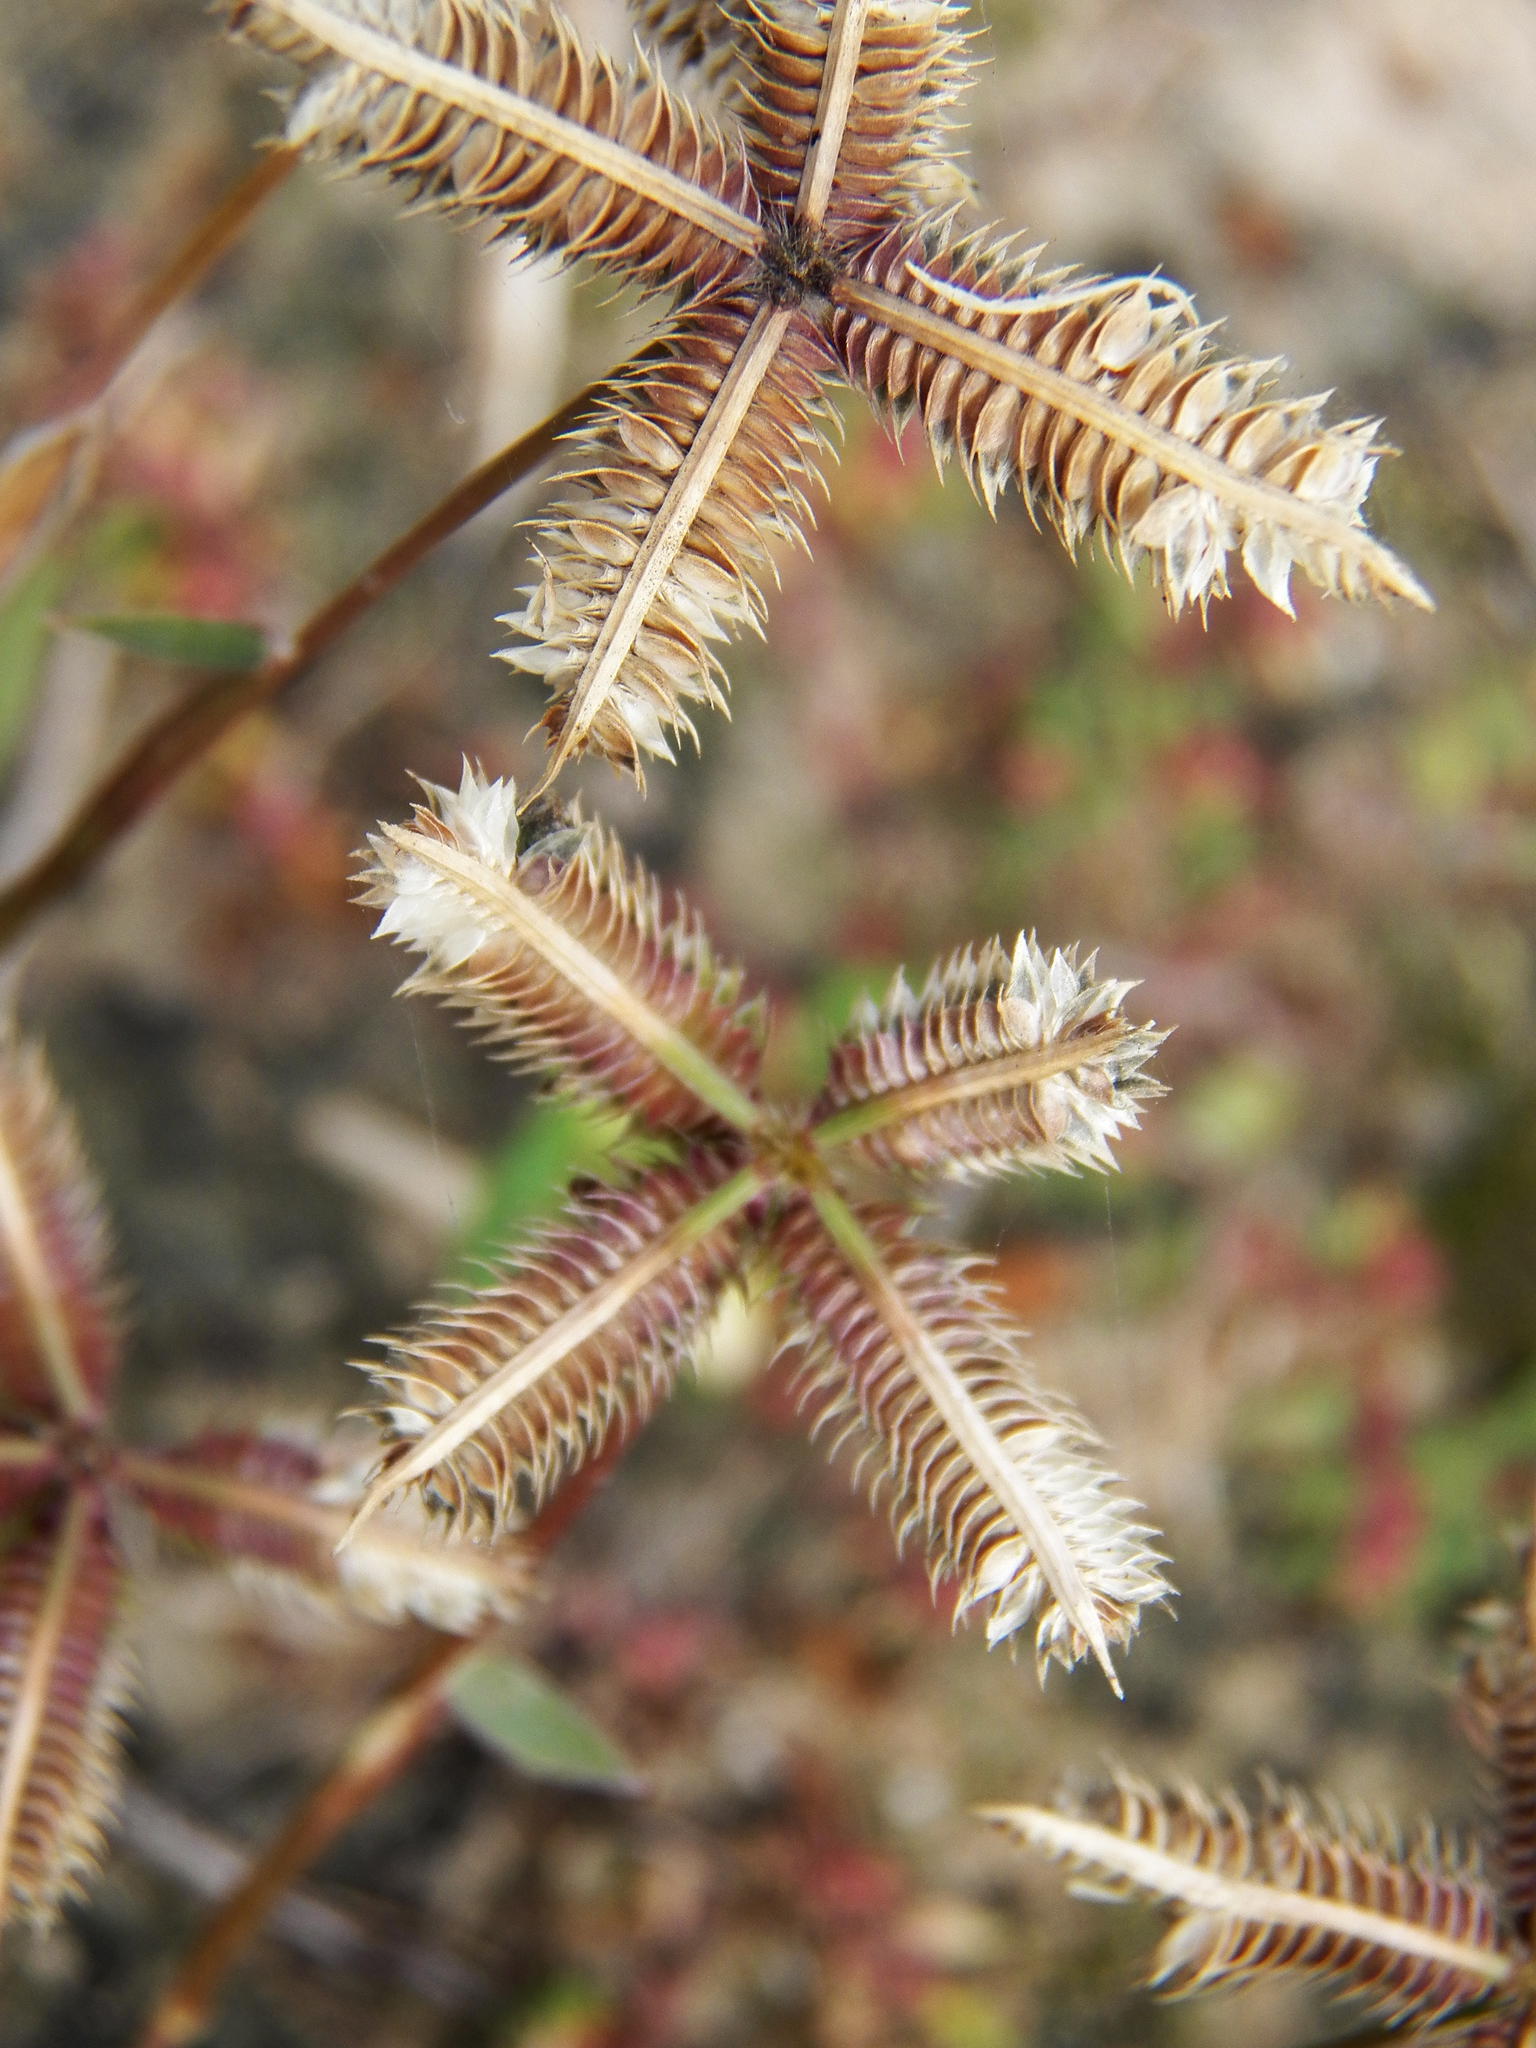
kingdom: Plantae
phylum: Tracheophyta
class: Liliopsida
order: Poales
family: Poaceae
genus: Dactyloctenium
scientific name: Dactyloctenium aegyptium
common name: Egyptian grass
